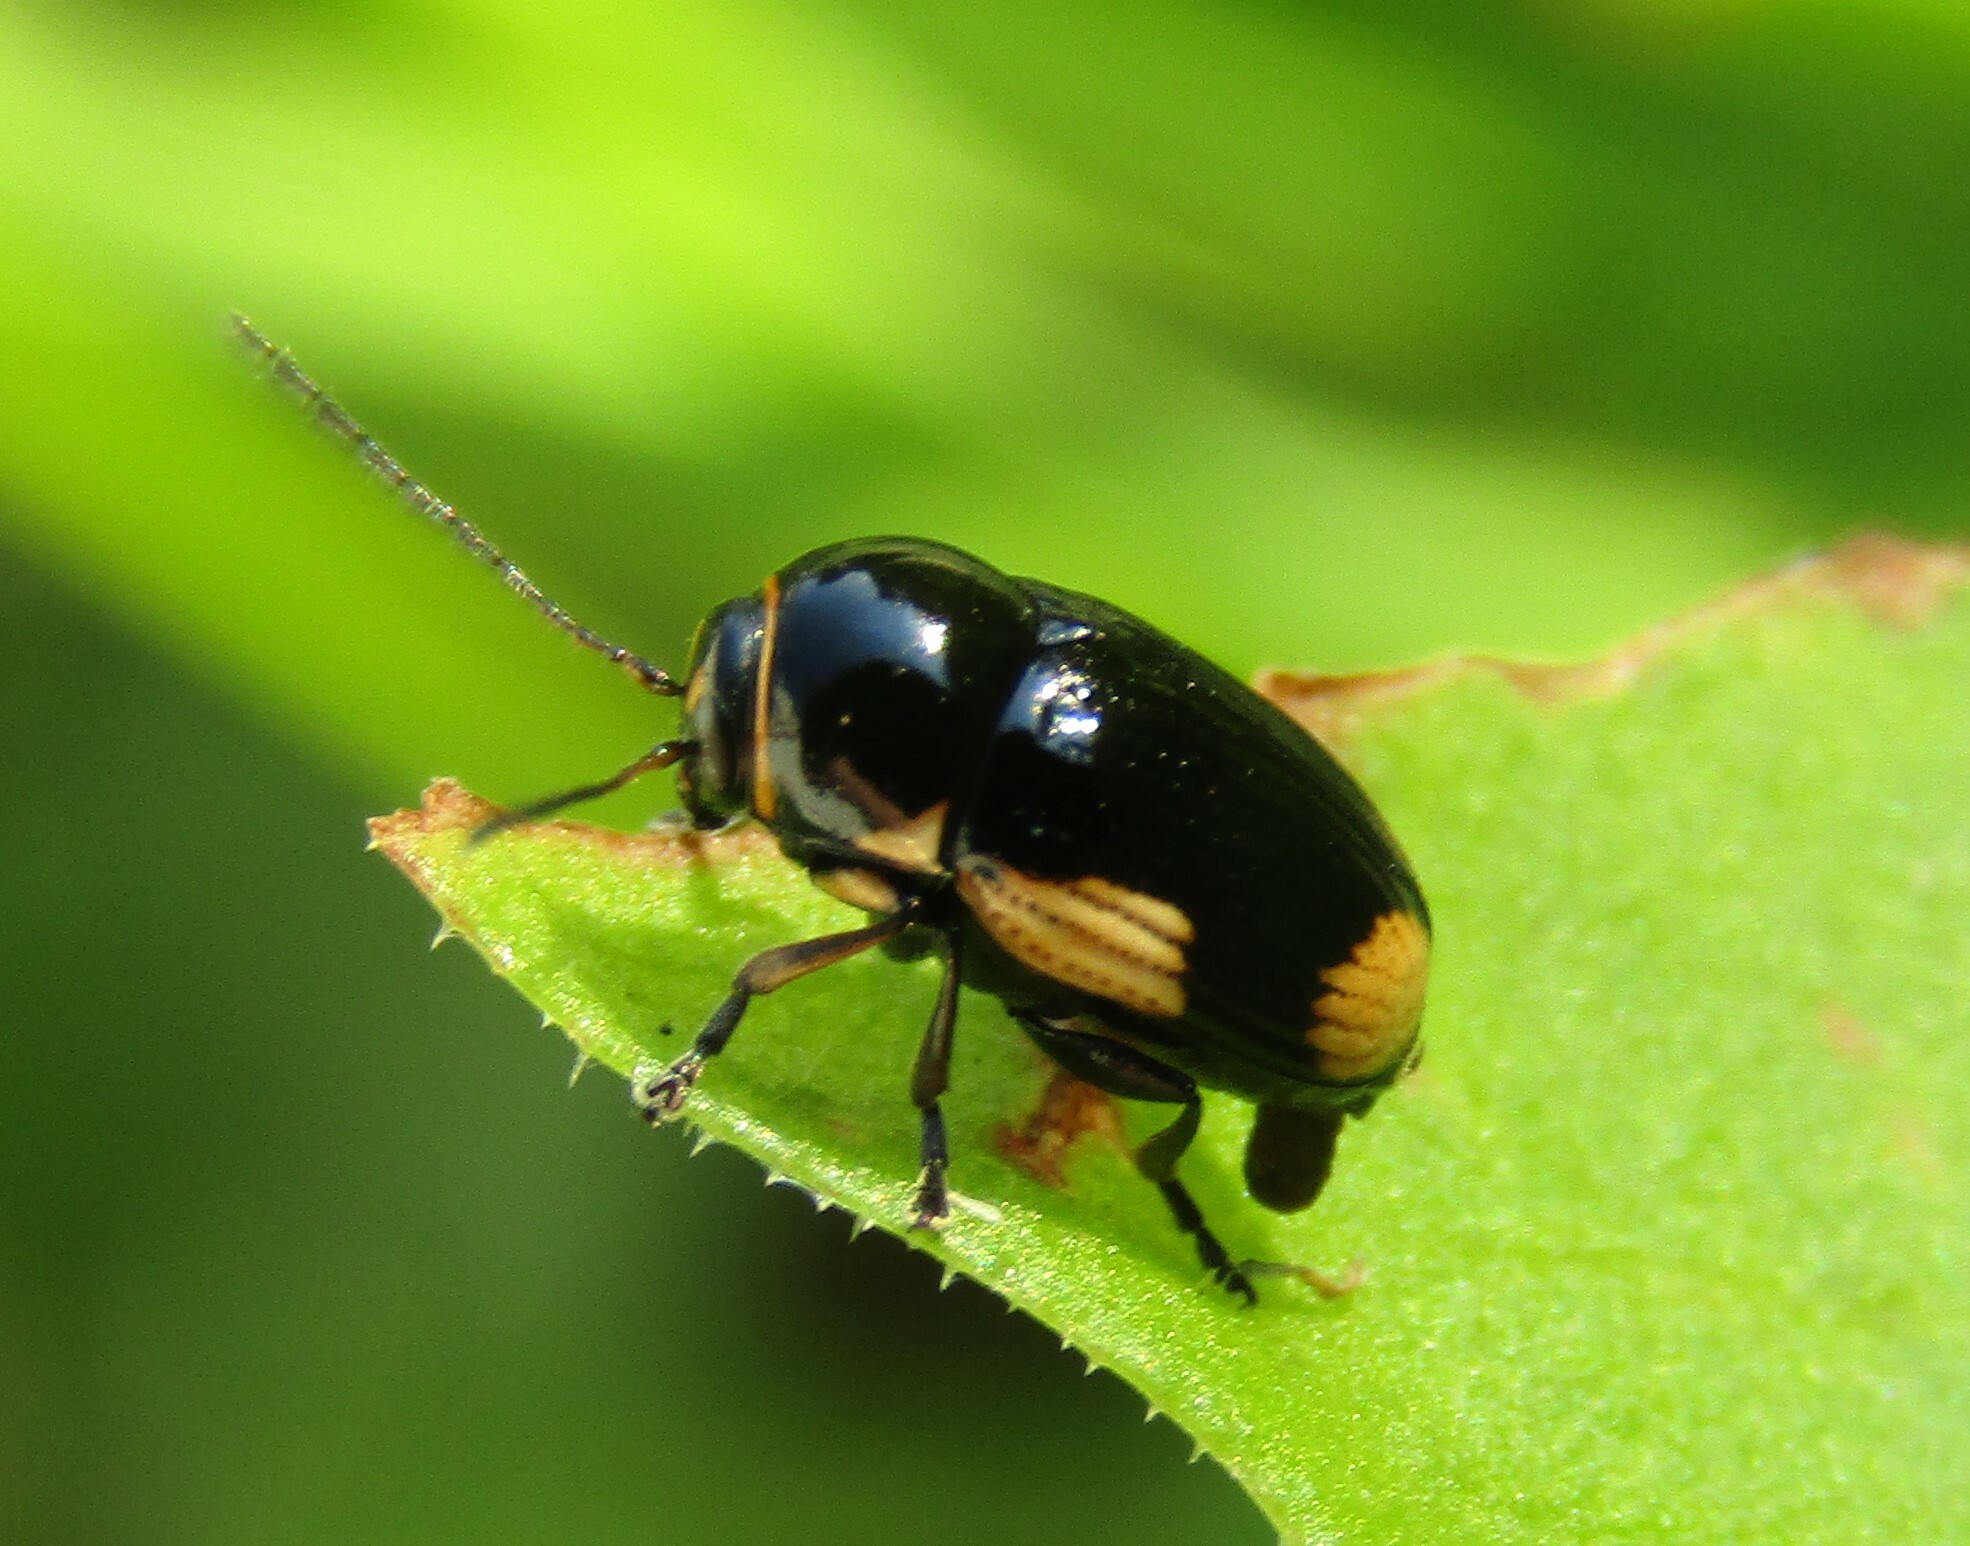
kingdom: Animalia
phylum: Arthropoda
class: Insecta
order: Coleoptera
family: Chrysomelidae
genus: Cryptocephalus
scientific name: Cryptocephalus moraei
